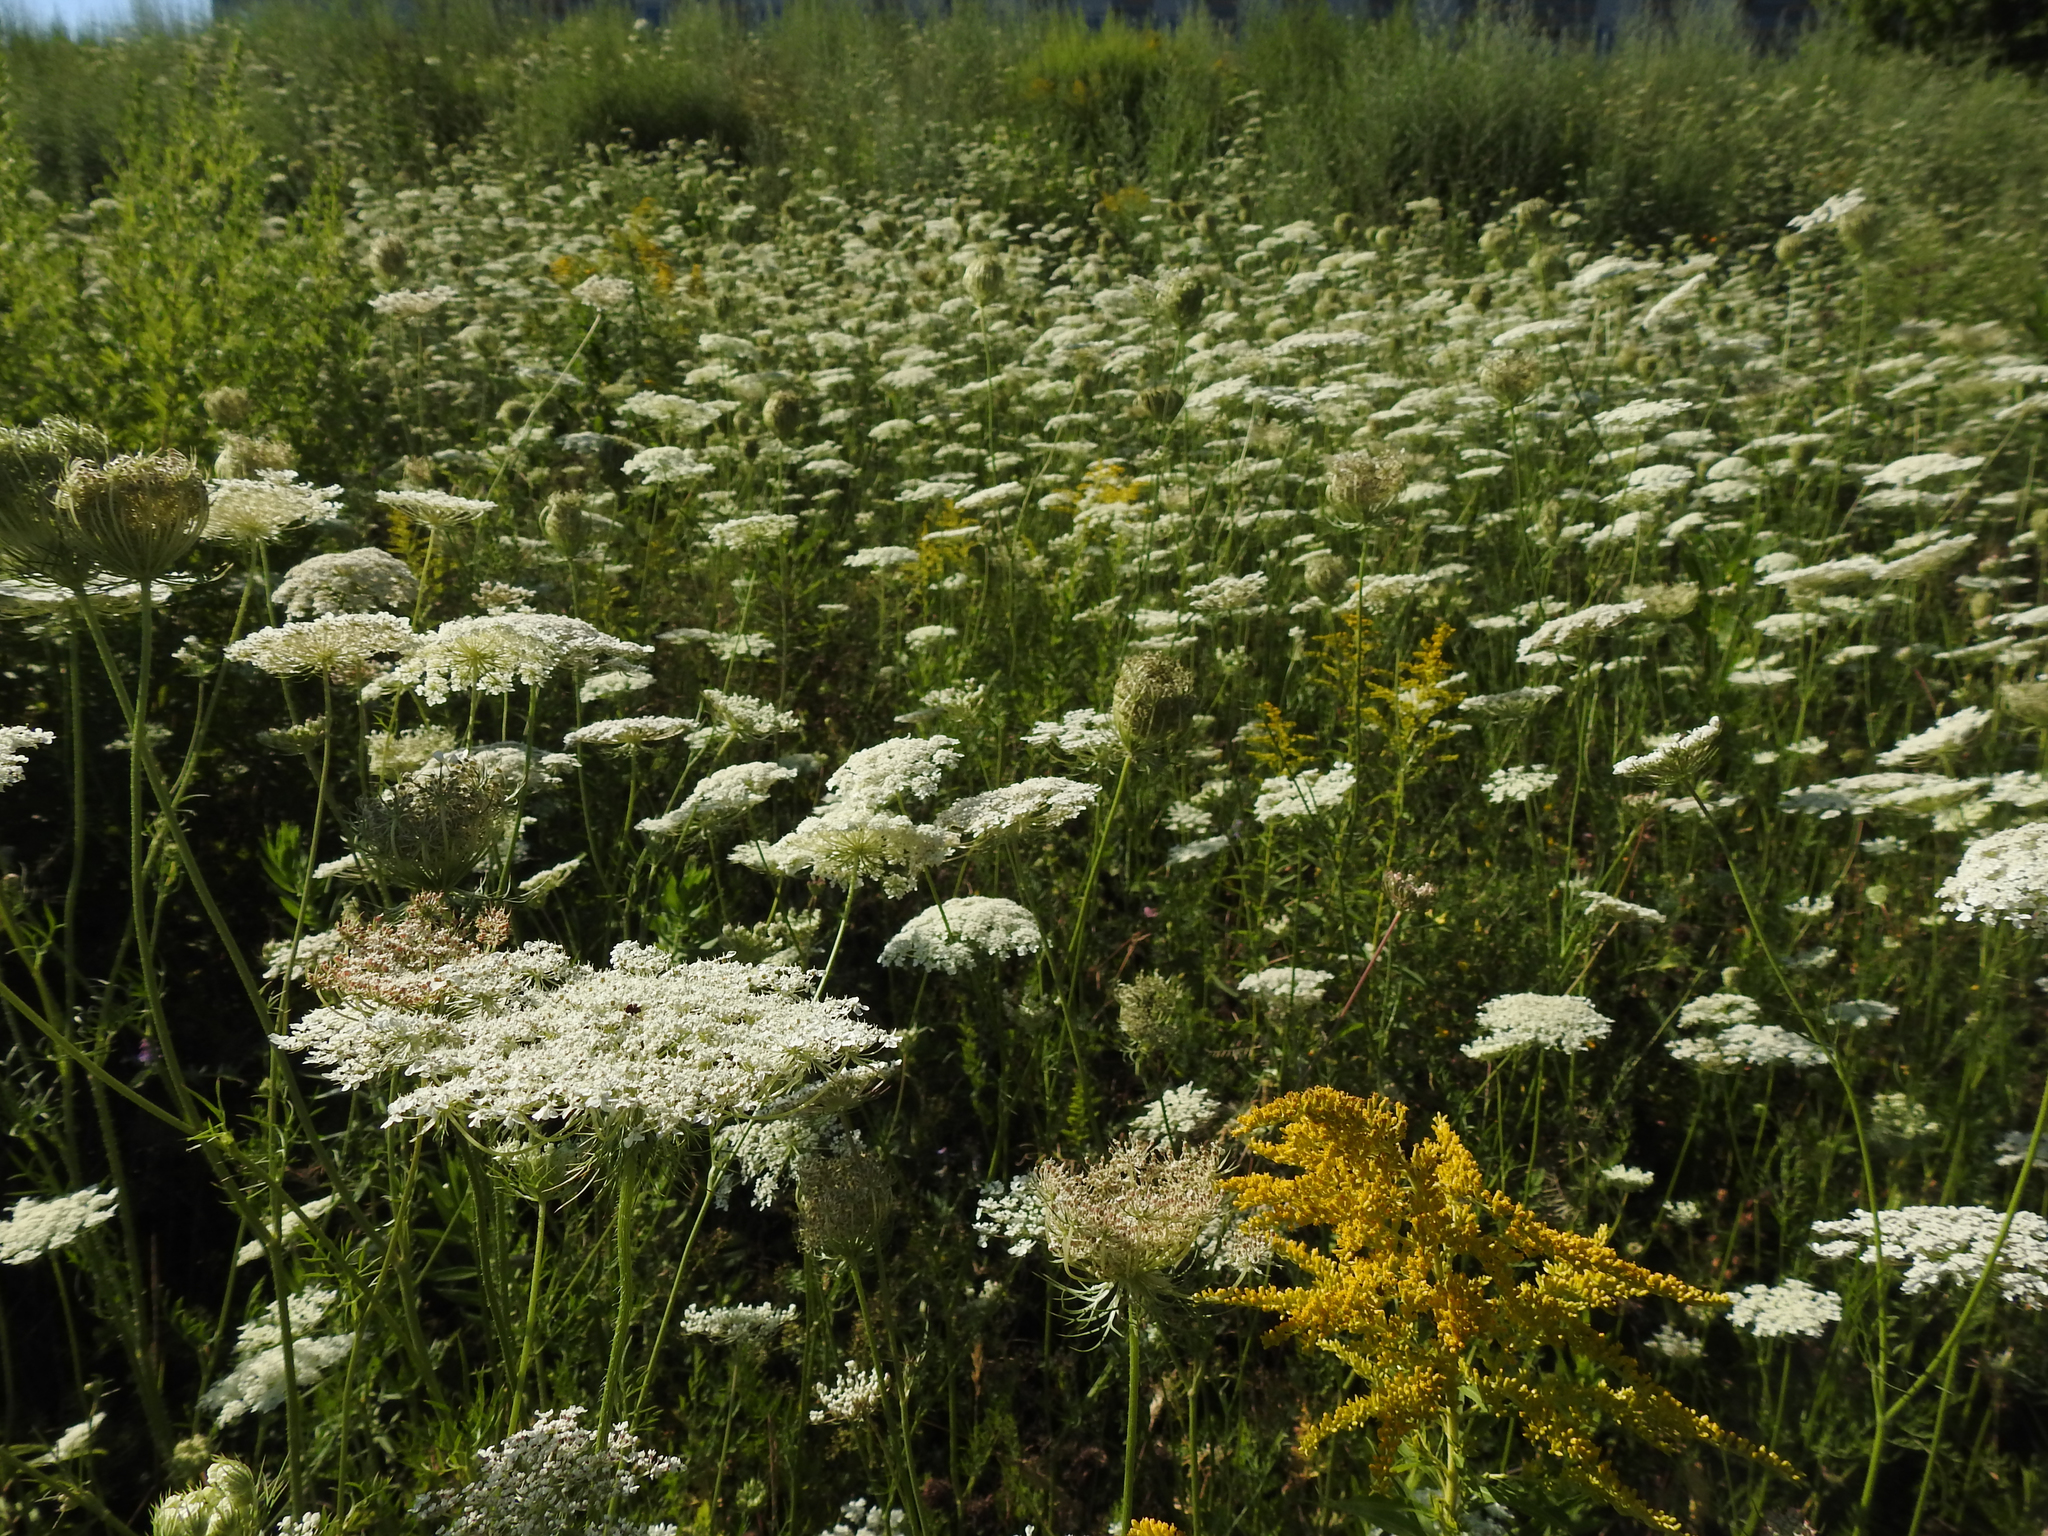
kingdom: Plantae
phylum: Tracheophyta
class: Magnoliopsida
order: Apiales
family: Apiaceae
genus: Daucus
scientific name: Daucus carota
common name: Wild carrot
